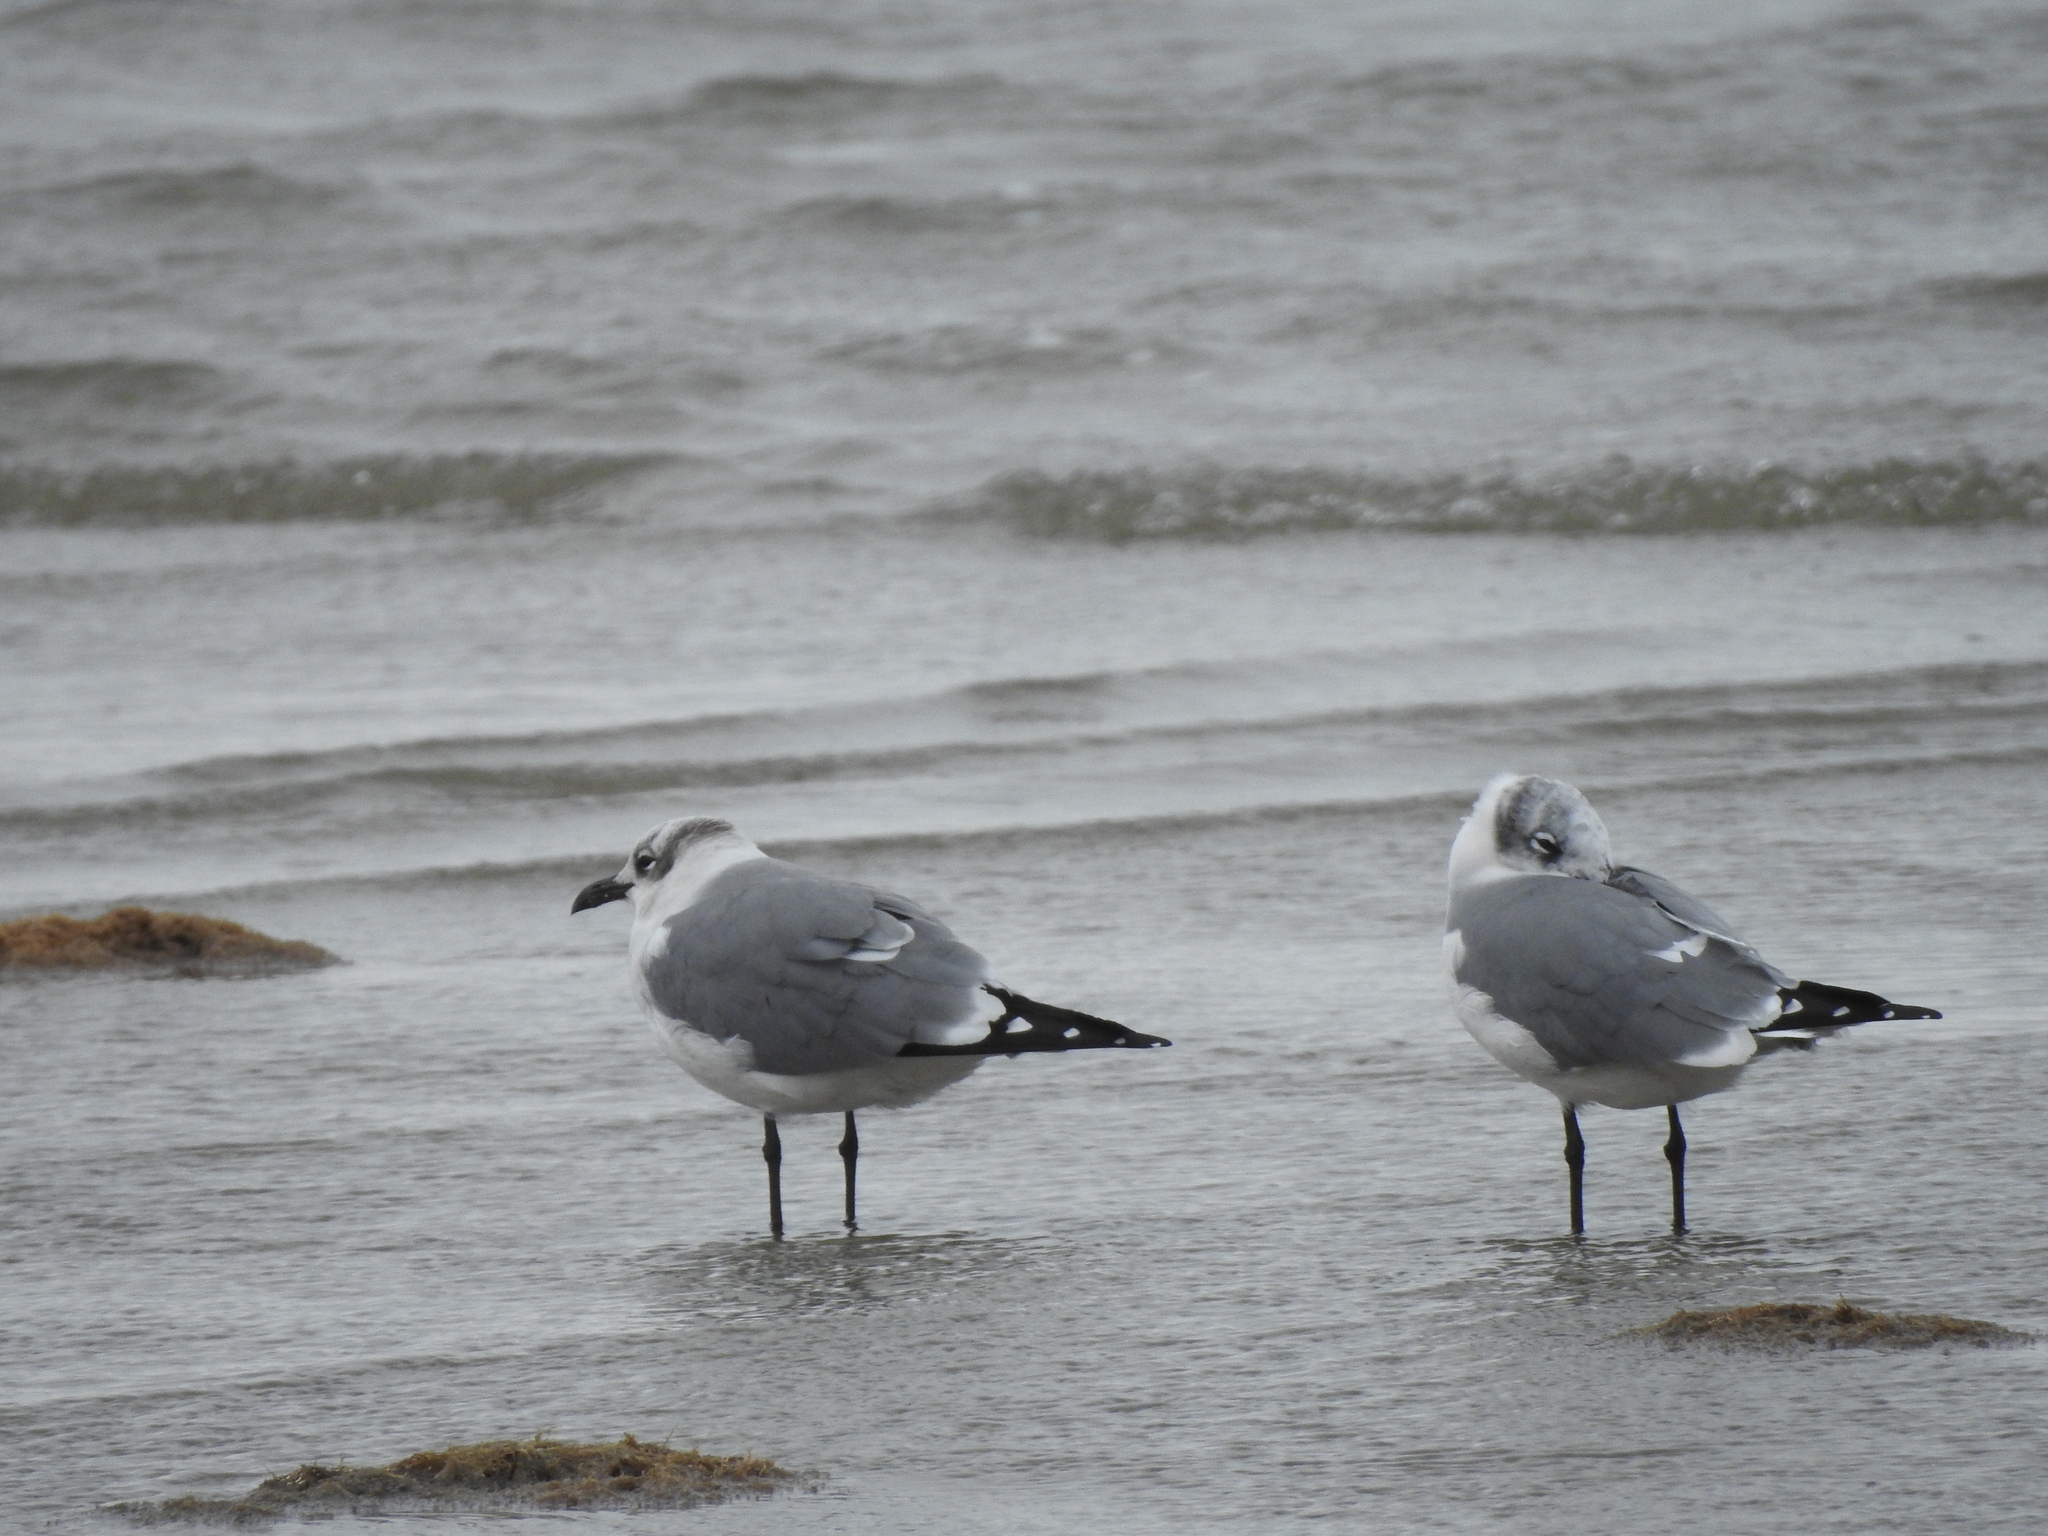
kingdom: Animalia
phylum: Chordata
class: Aves
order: Charadriiformes
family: Laridae
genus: Leucophaeus
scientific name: Leucophaeus atricilla
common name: Laughing gull
